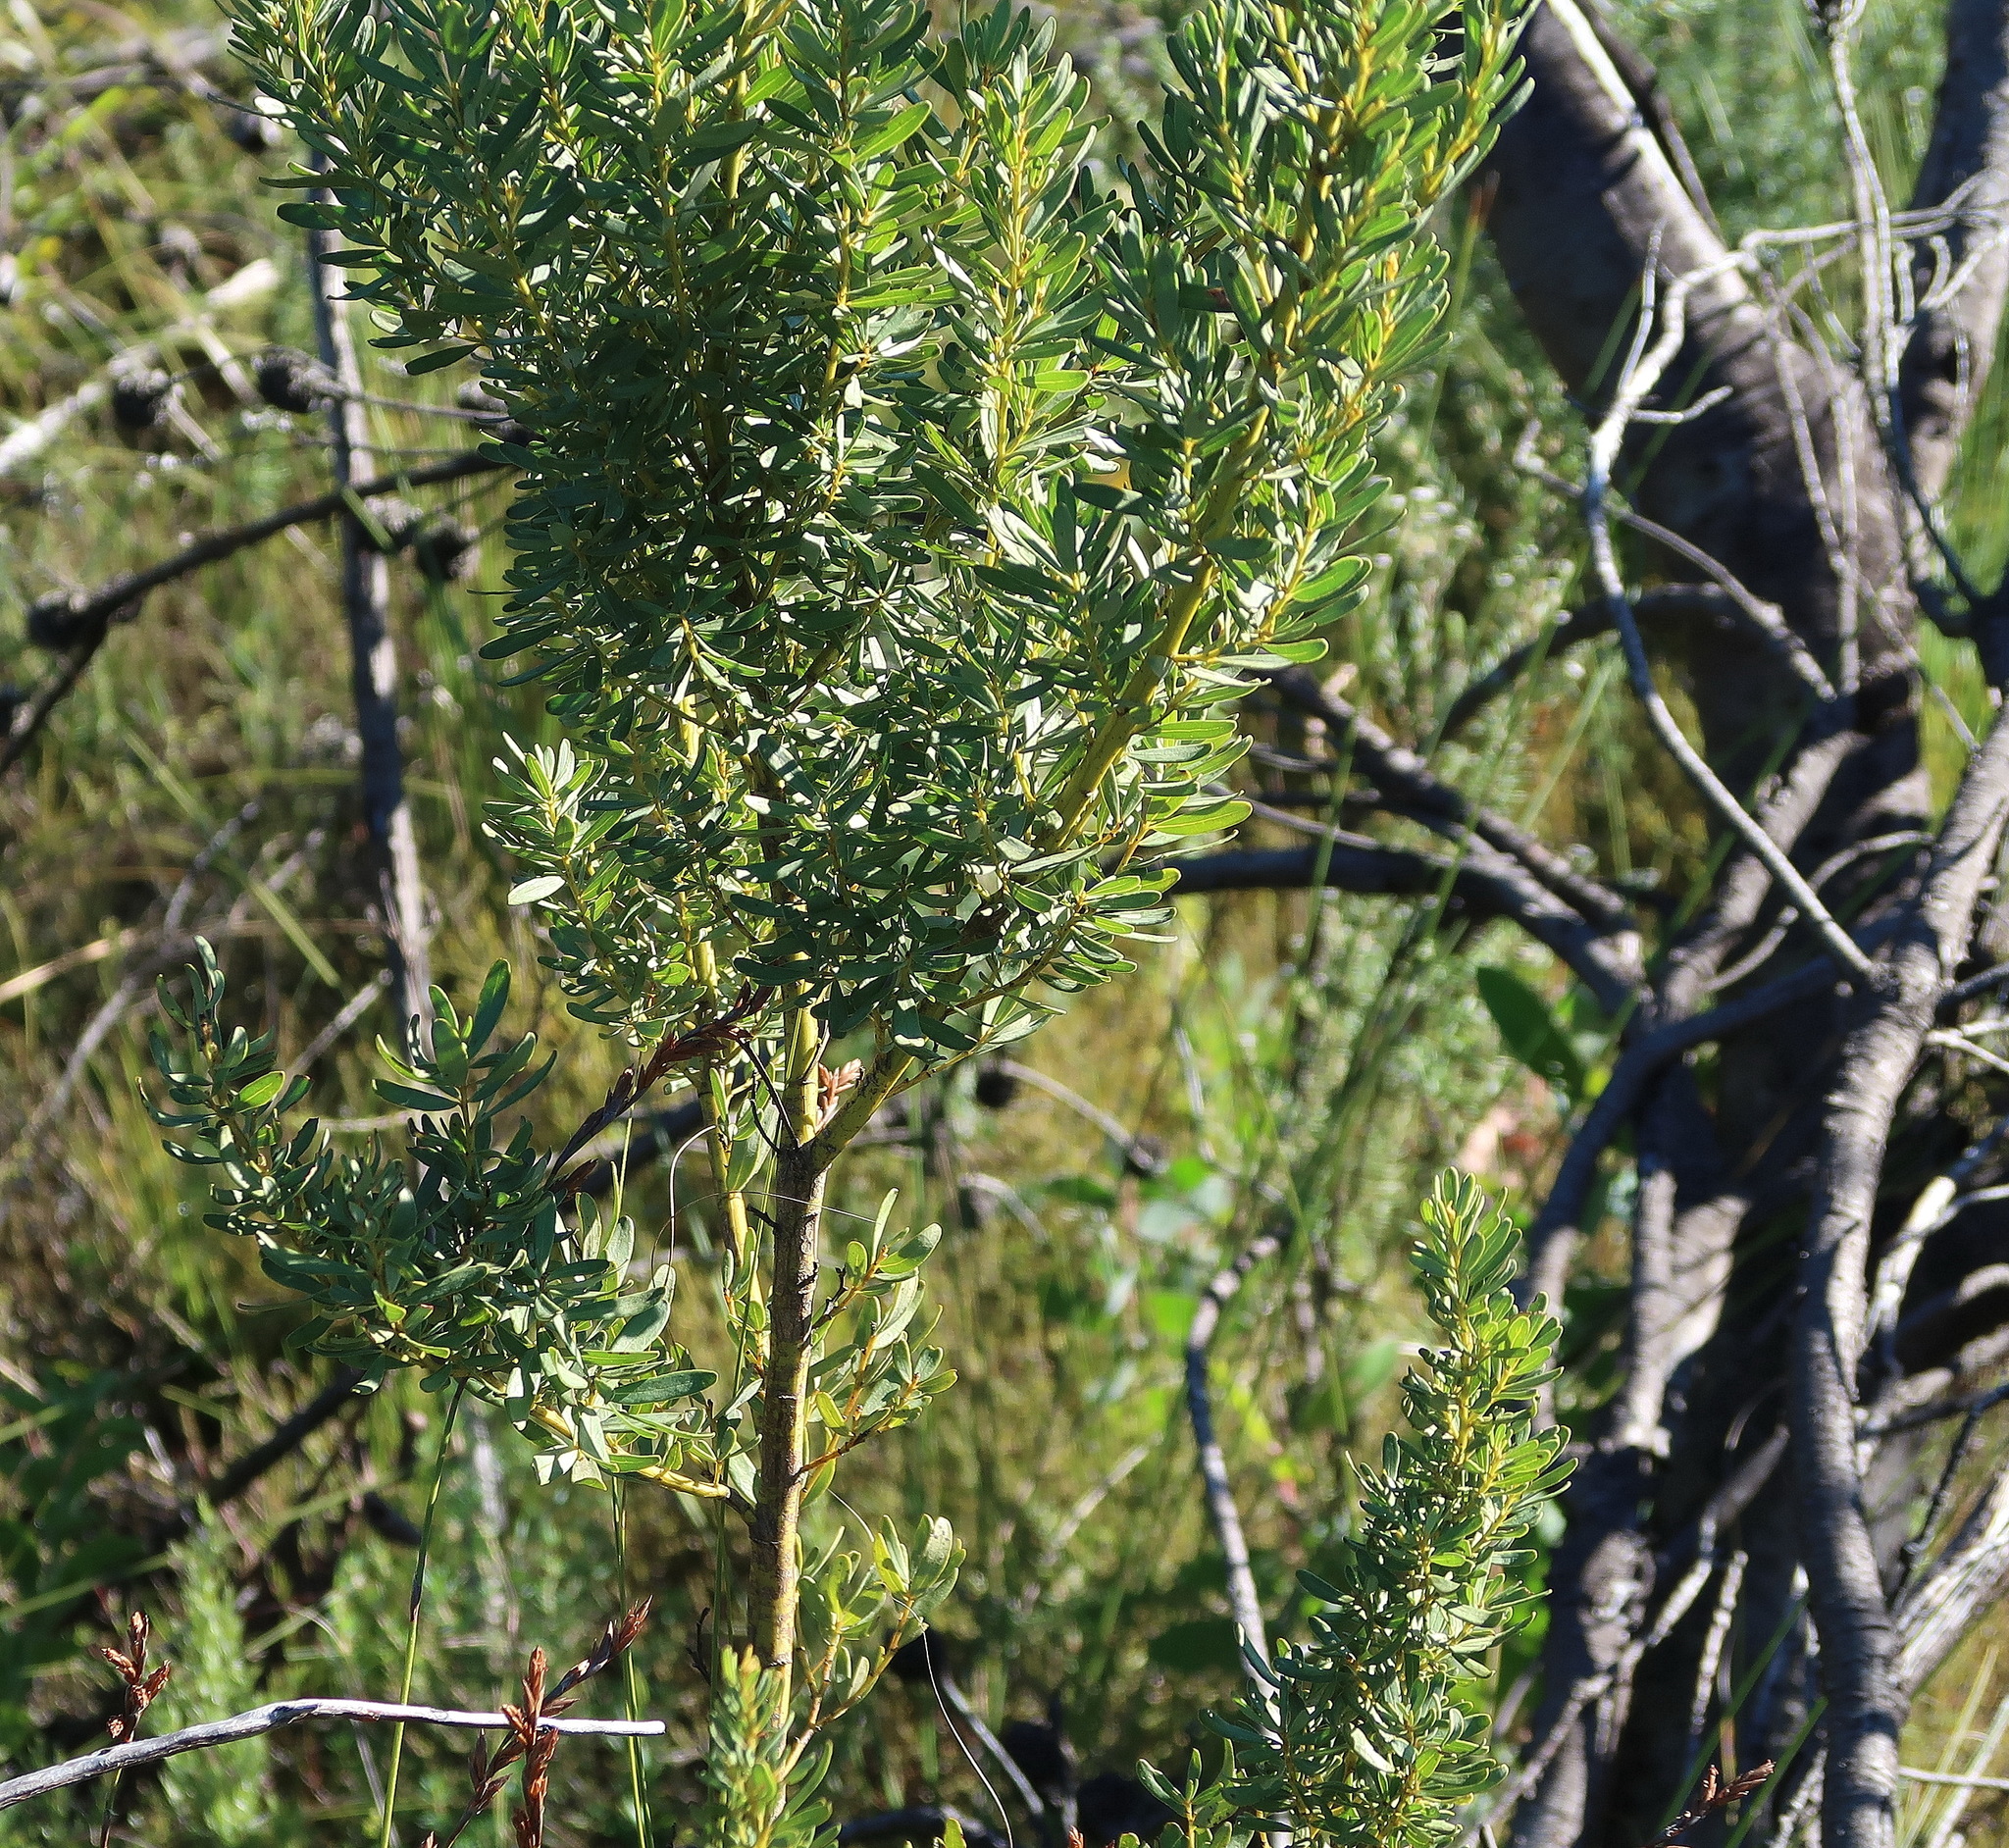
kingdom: Plantae
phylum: Tracheophyta
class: Magnoliopsida
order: Fabales
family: Fabaceae
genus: Cyclopia
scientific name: Cyclopia subternata
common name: Honeybush tea
